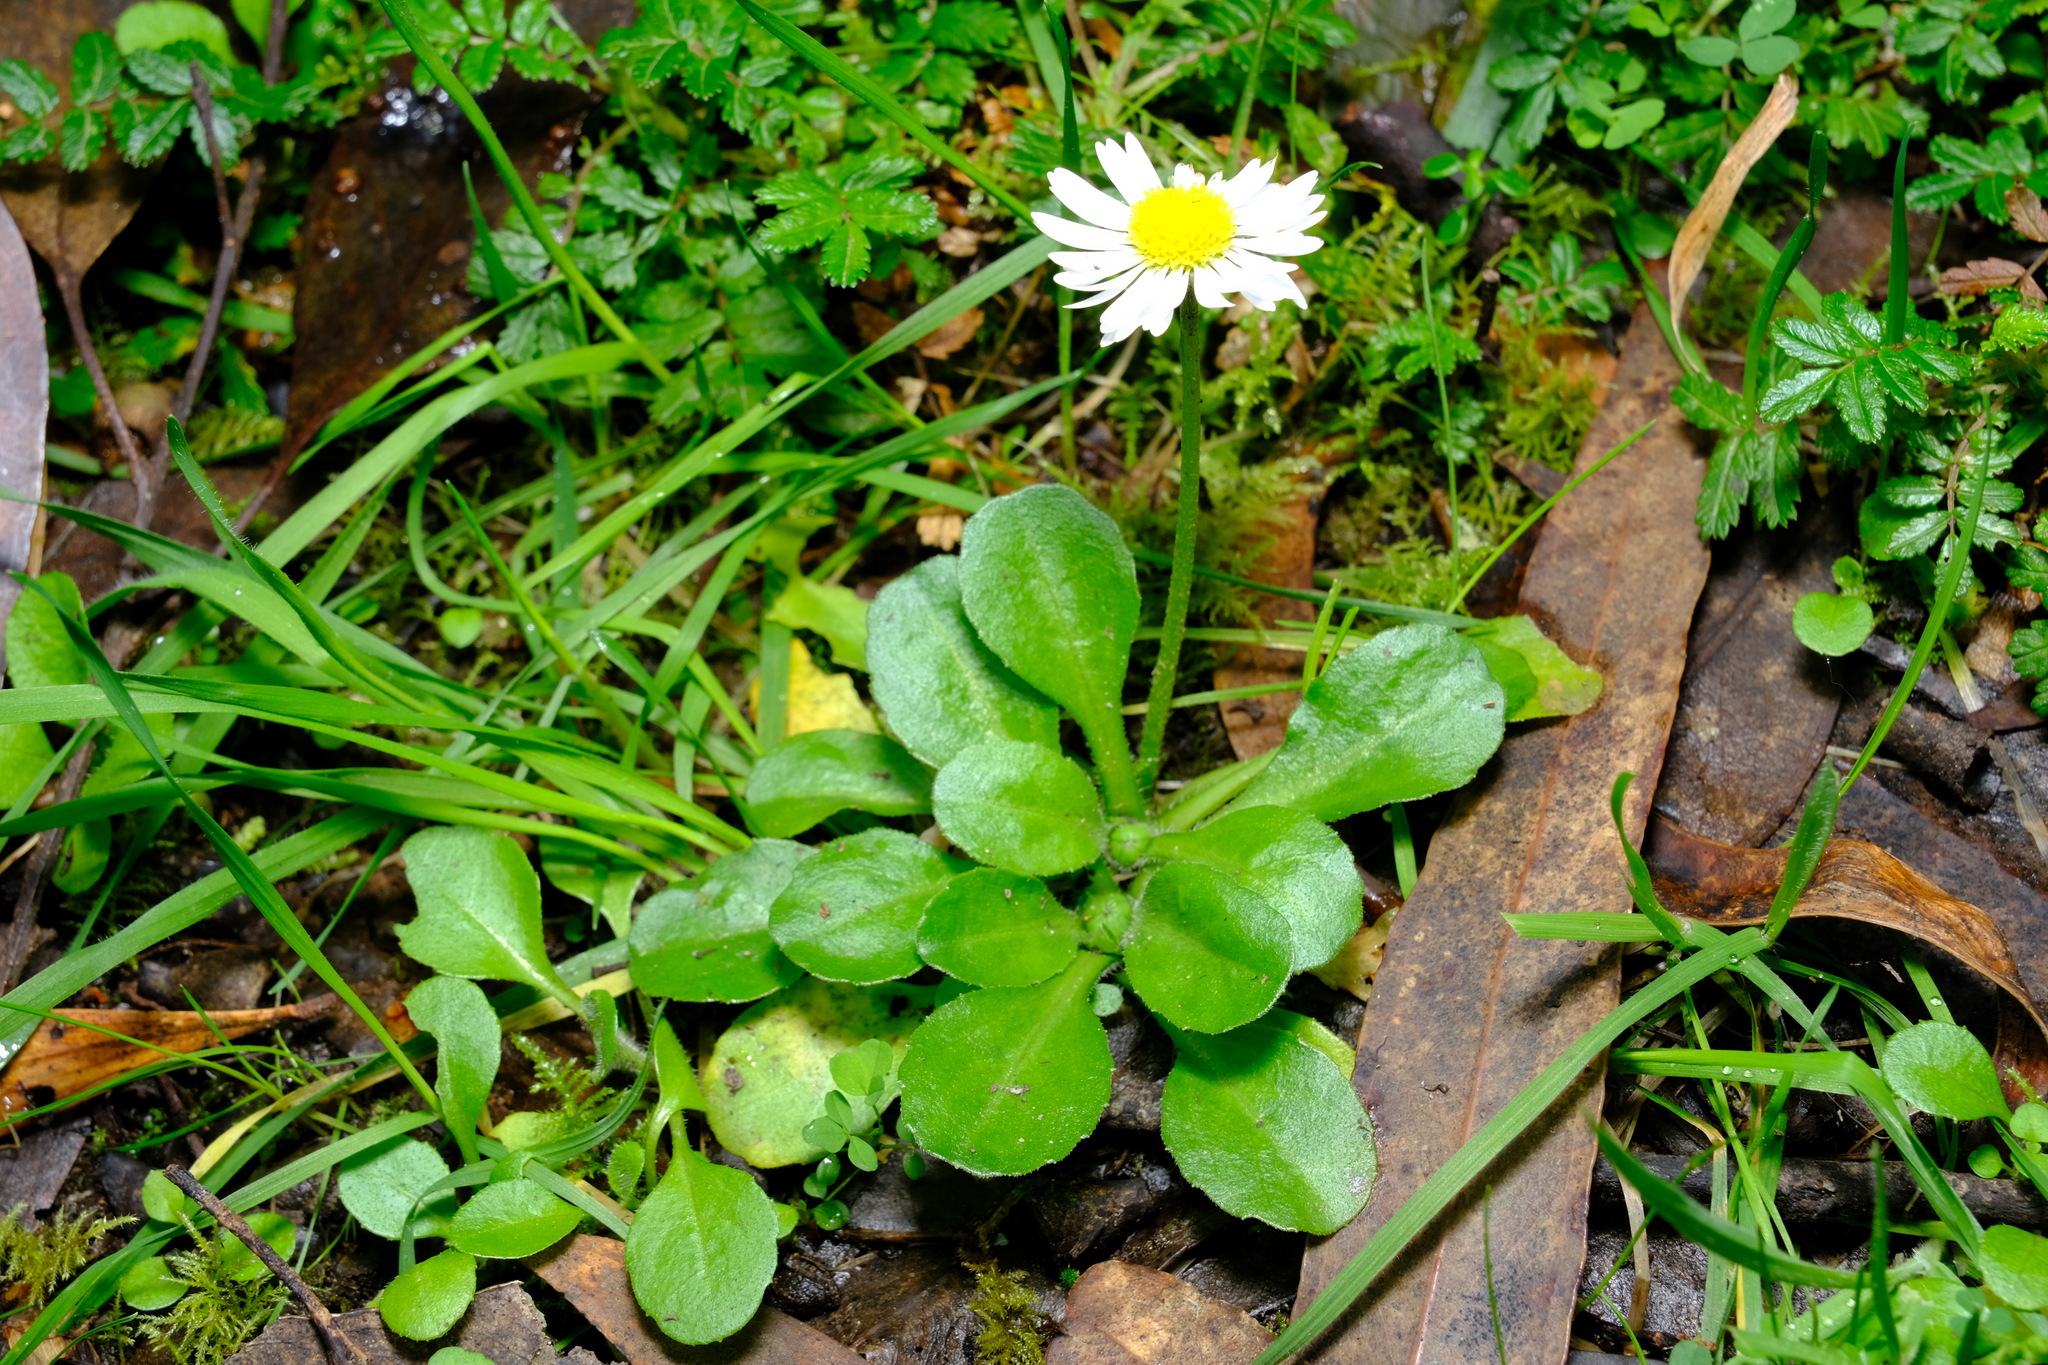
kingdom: Plantae
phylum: Tracheophyta
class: Magnoliopsida
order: Asterales
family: Asteraceae
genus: Bellis
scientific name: Bellis perennis
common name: Lawndaisy
